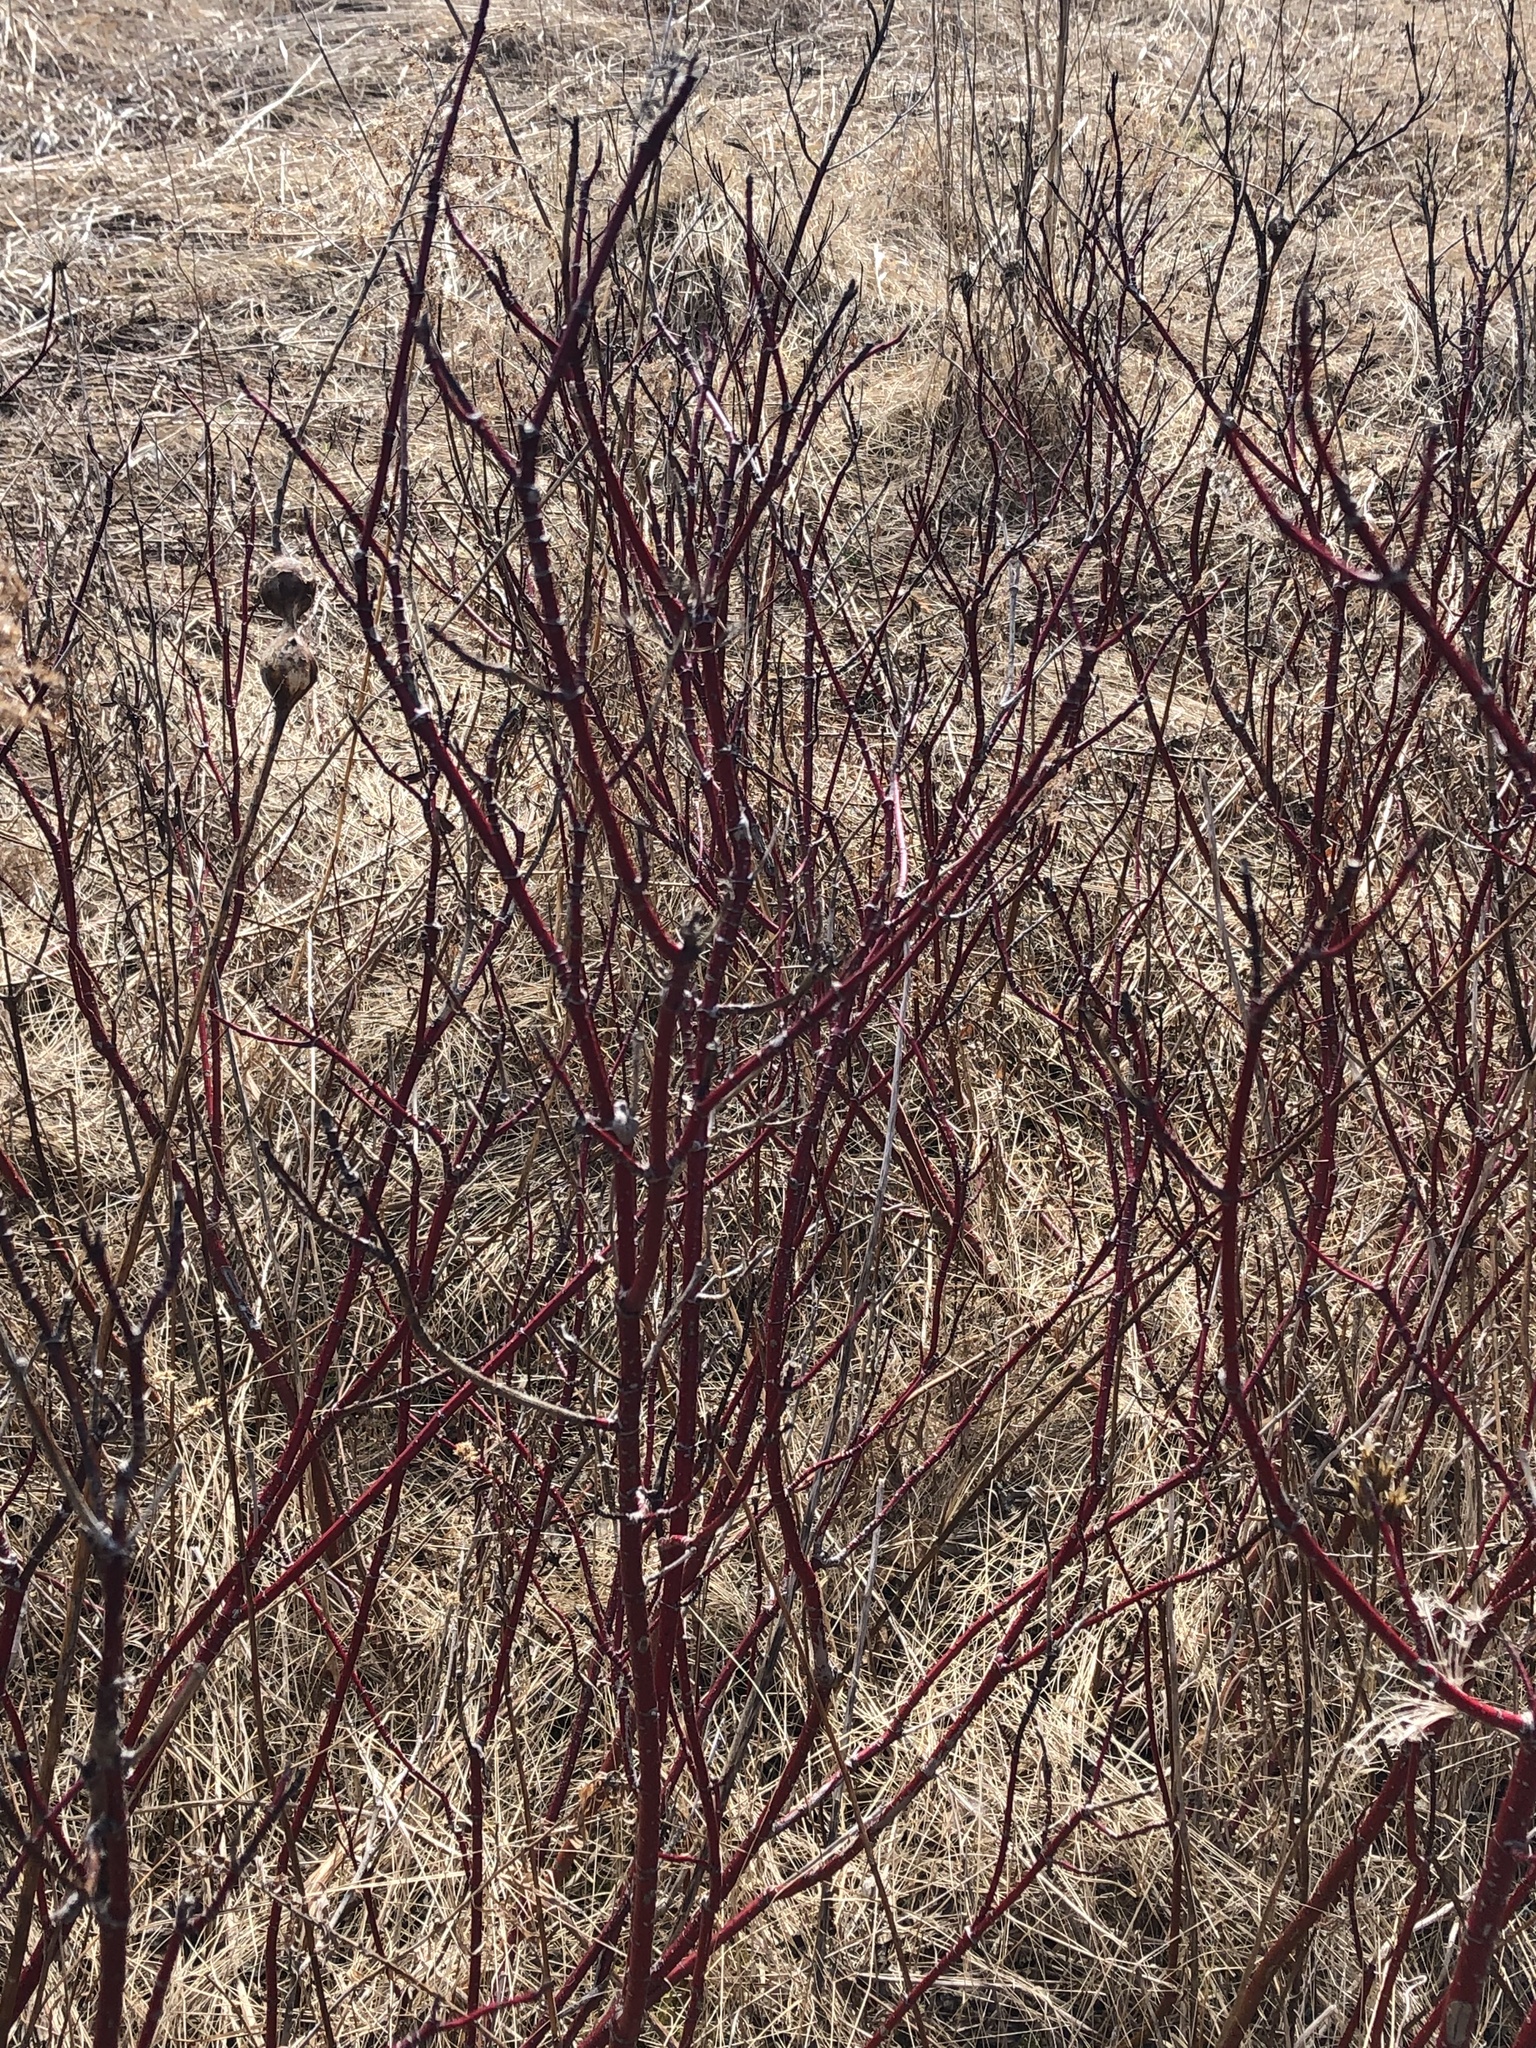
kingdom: Plantae
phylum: Tracheophyta
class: Magnoliopsida
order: Cornales
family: Cornaceae
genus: Cornus
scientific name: Cornus sericea
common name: Red-osier dogwood
